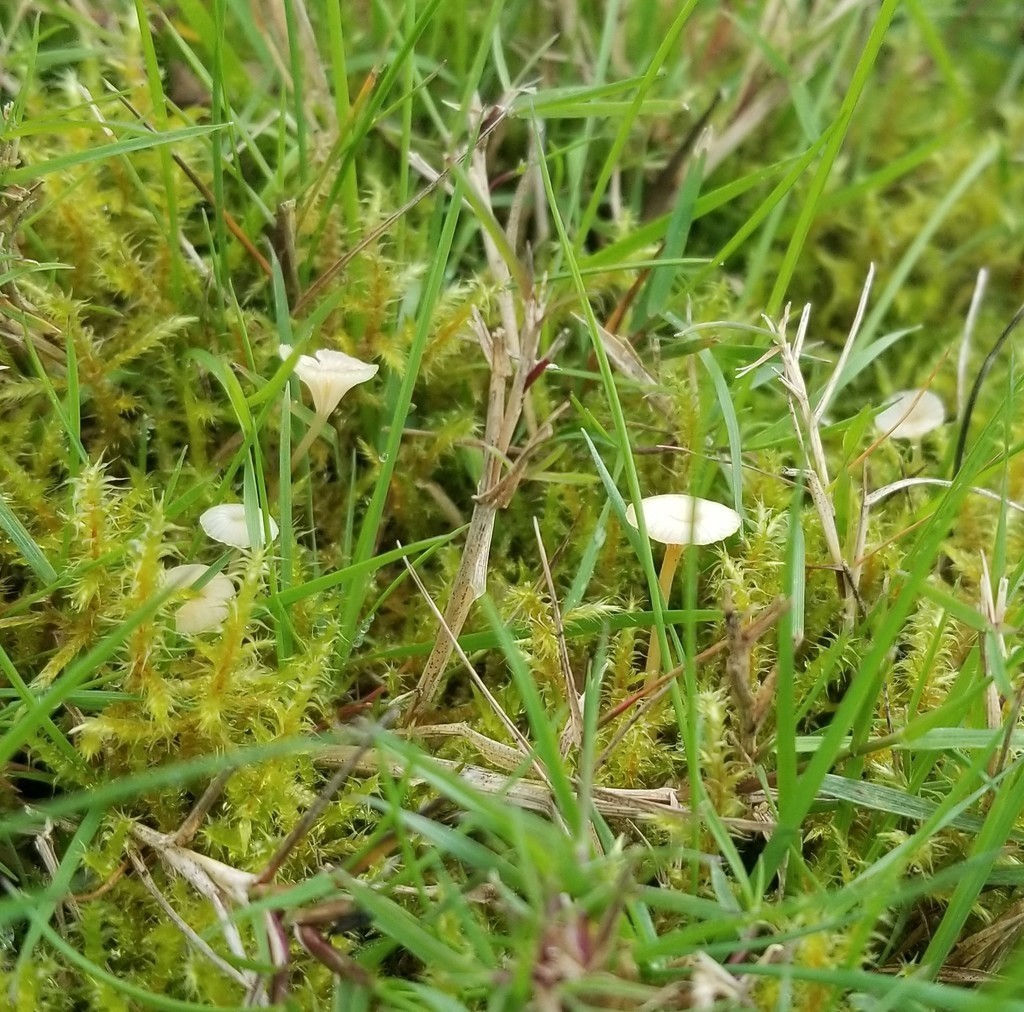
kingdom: Fungi
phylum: Basidiomycota
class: Agaricomycetes
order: Hymenochaetales
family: Rickenellaceae
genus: Rickenella
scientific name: Rickenella fibula
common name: Orange mosscap
